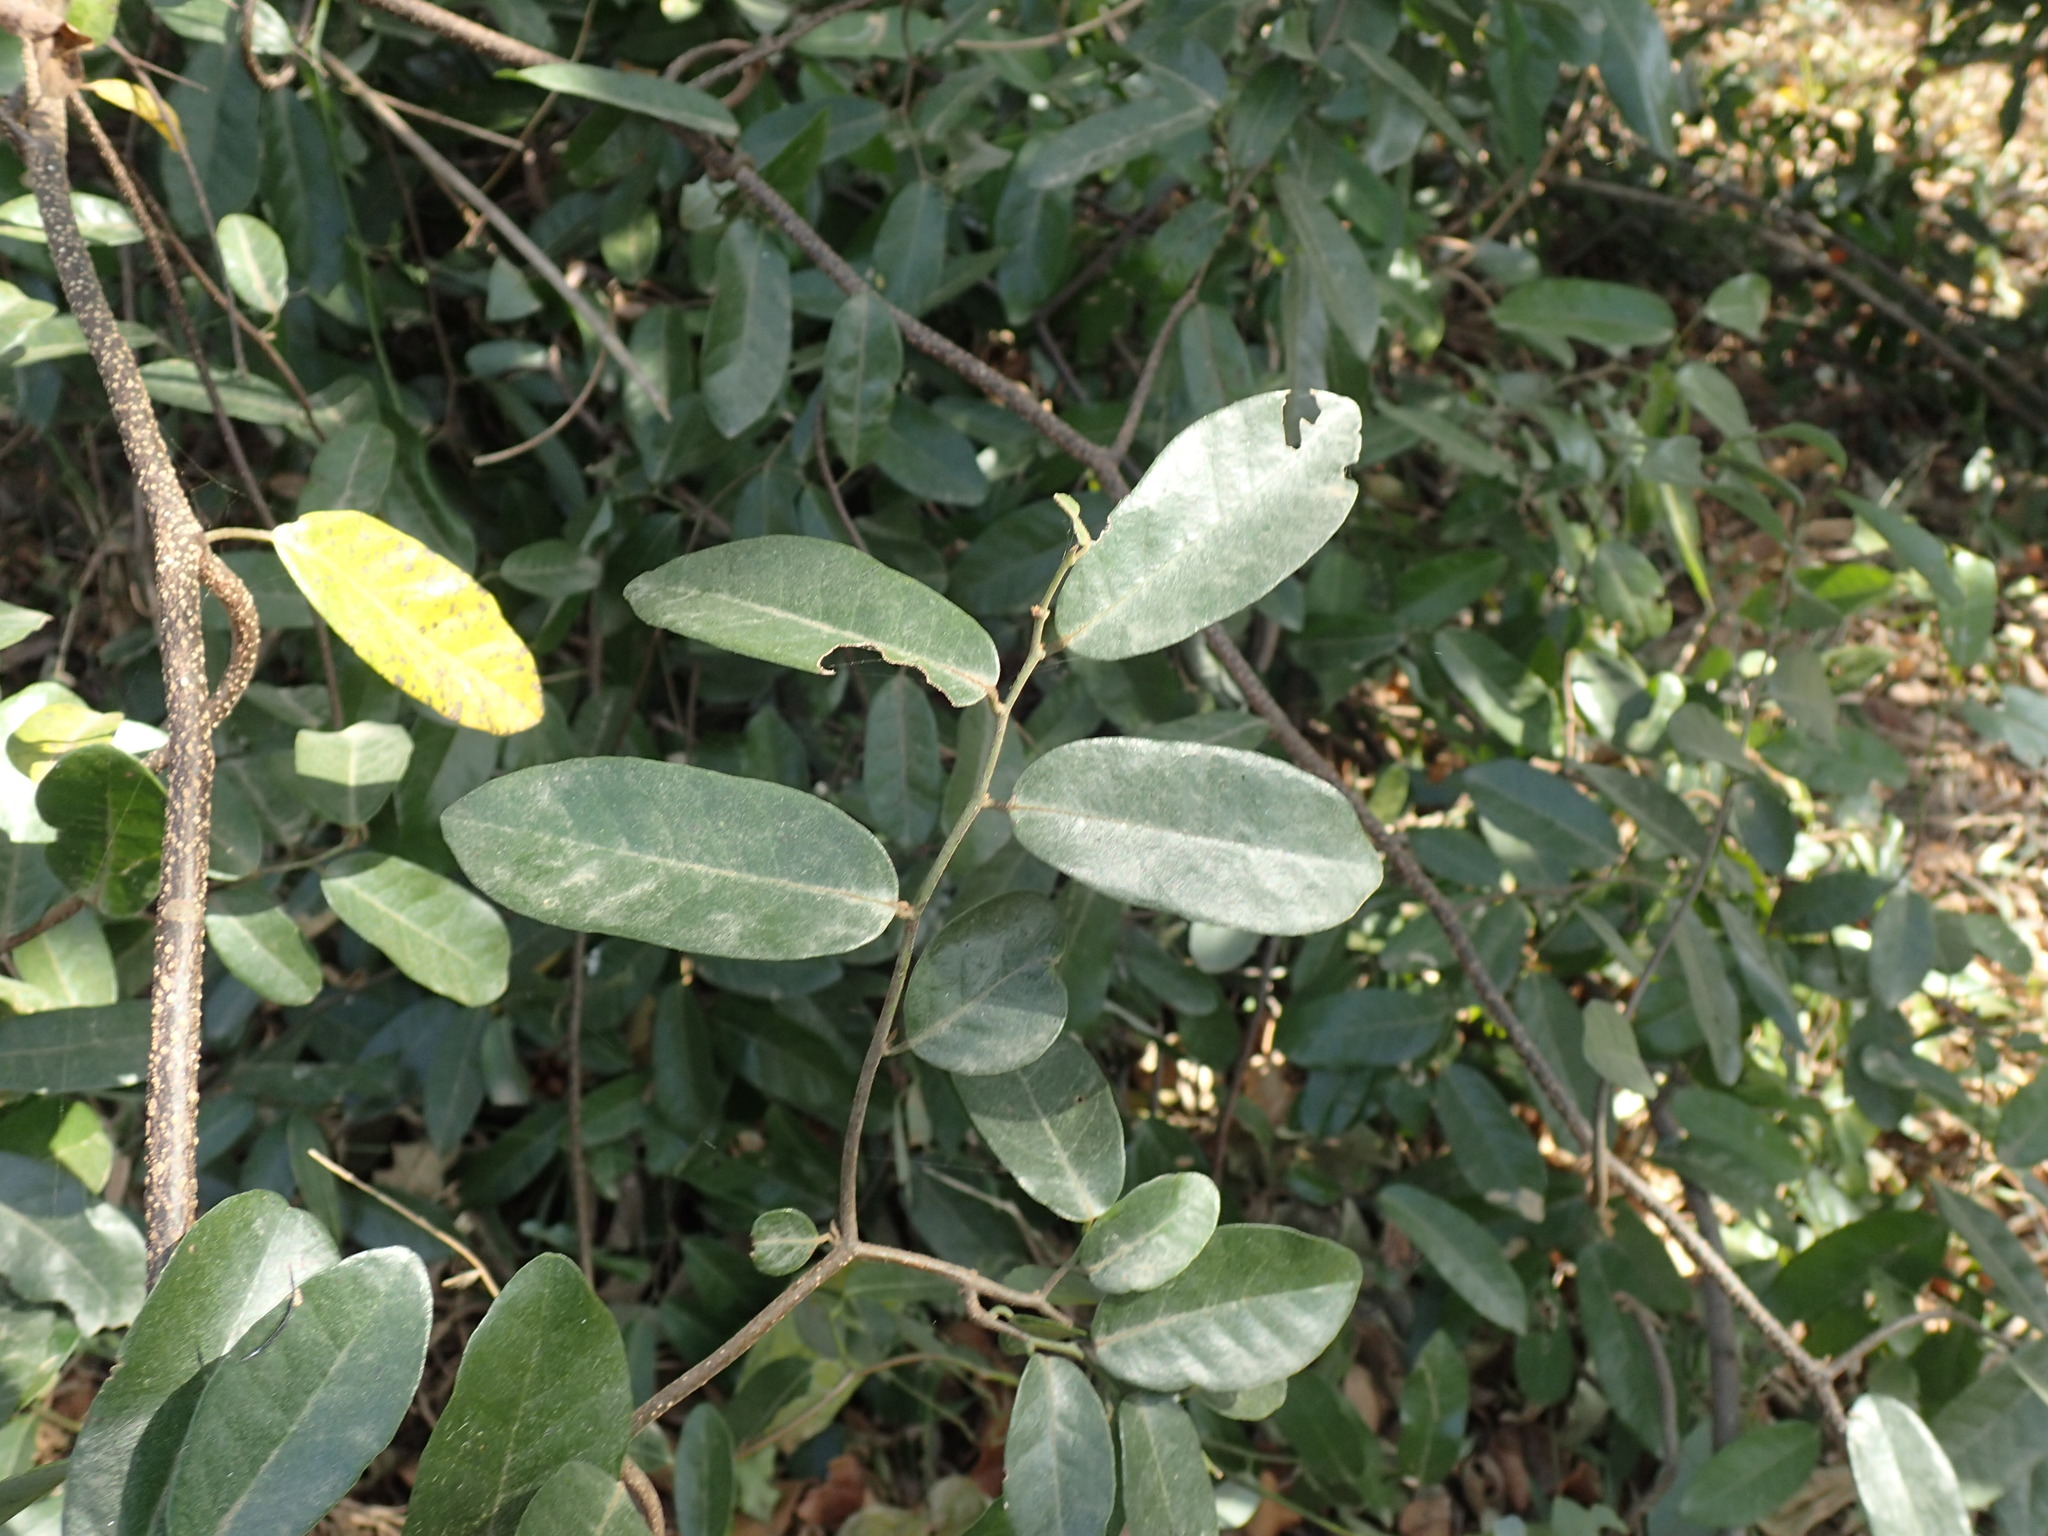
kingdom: Plantae
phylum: Tracheophyta
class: Magnoliopsida
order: Magnoliales
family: Annonaceae
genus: Monanthotaxis
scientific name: Monanthotaxis caffra
